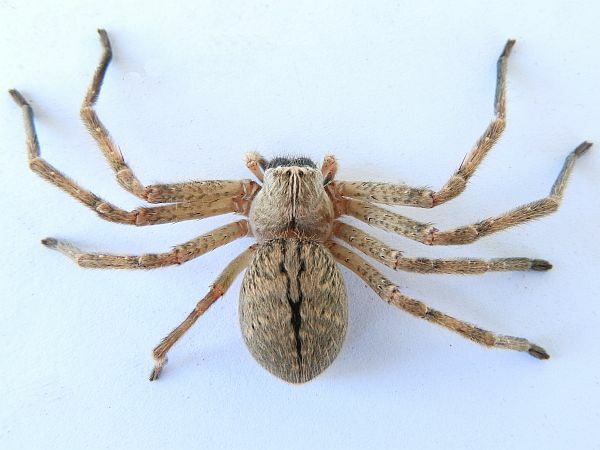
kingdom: Animalia
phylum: Arthropoda
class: Arachnida
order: Araneae
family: Sparassidae
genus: Olios
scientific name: Olios giganteus
